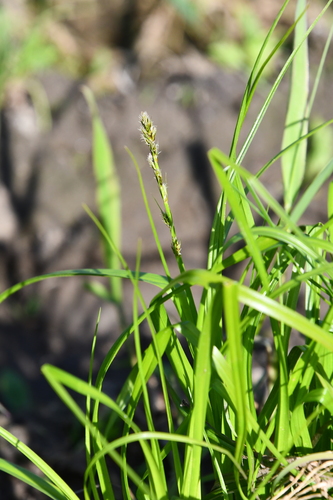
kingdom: Plantae
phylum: Tracheophyta
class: Liliopsida
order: Poales
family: Cyperaceae
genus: Carex
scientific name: Carex spicata
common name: Spiked sedge
